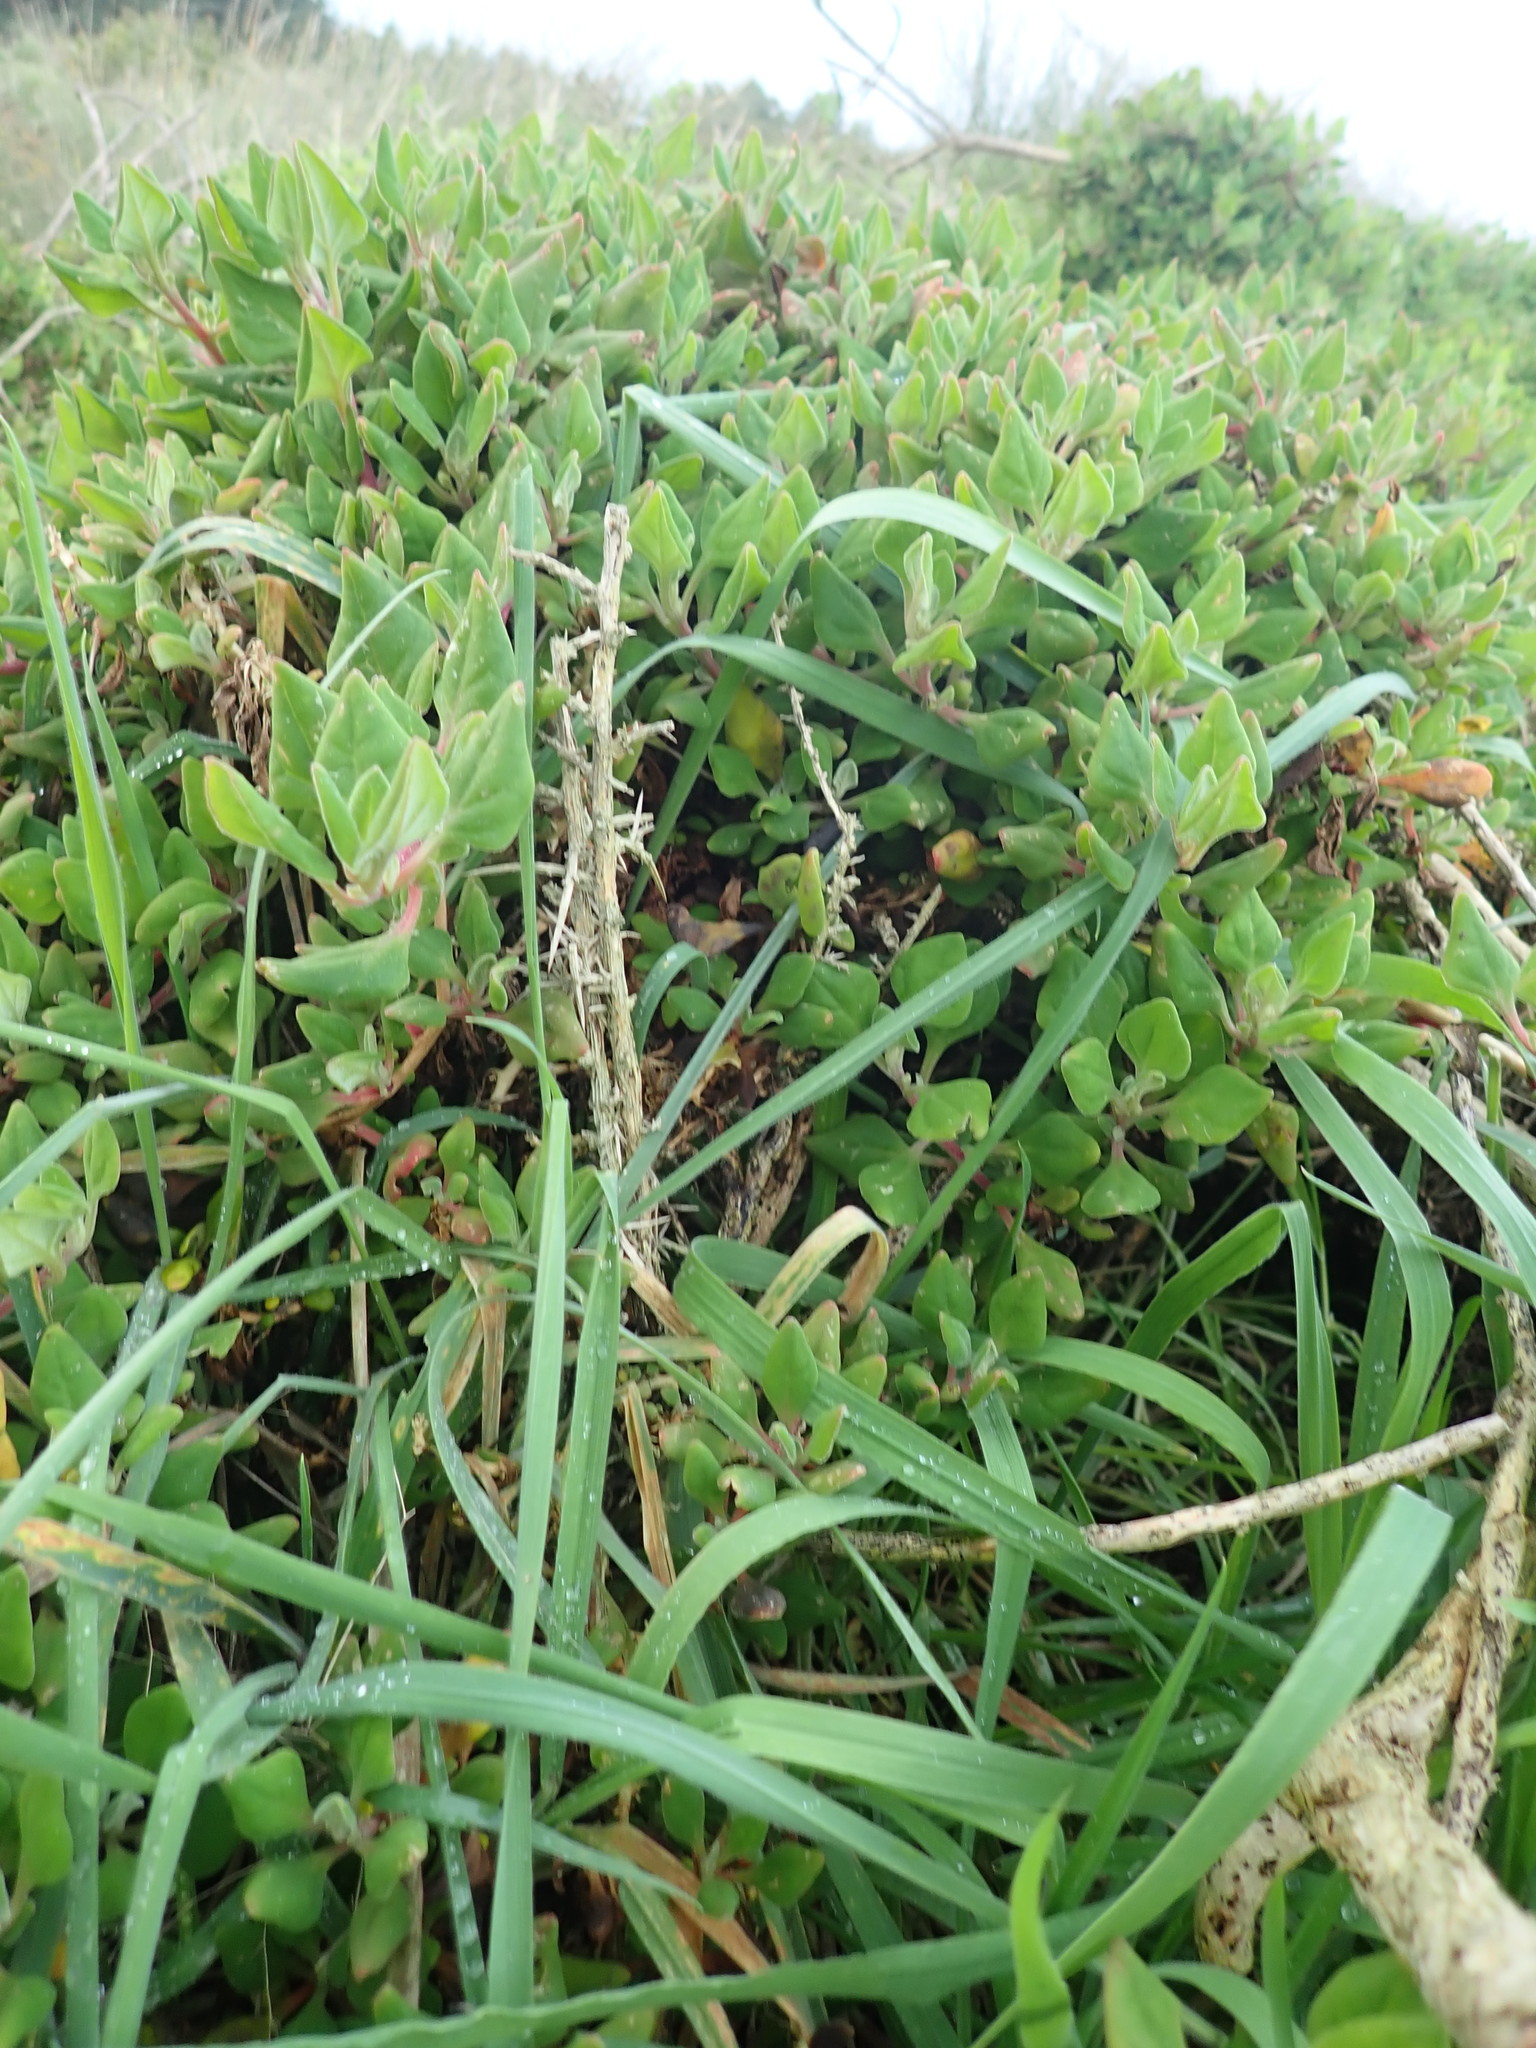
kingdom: Plantae
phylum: Tracheophyta
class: Magnoliopsida
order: Caryophyllales
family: Aizoaceae
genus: Tetragonia
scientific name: Tetragonia implexicoma
